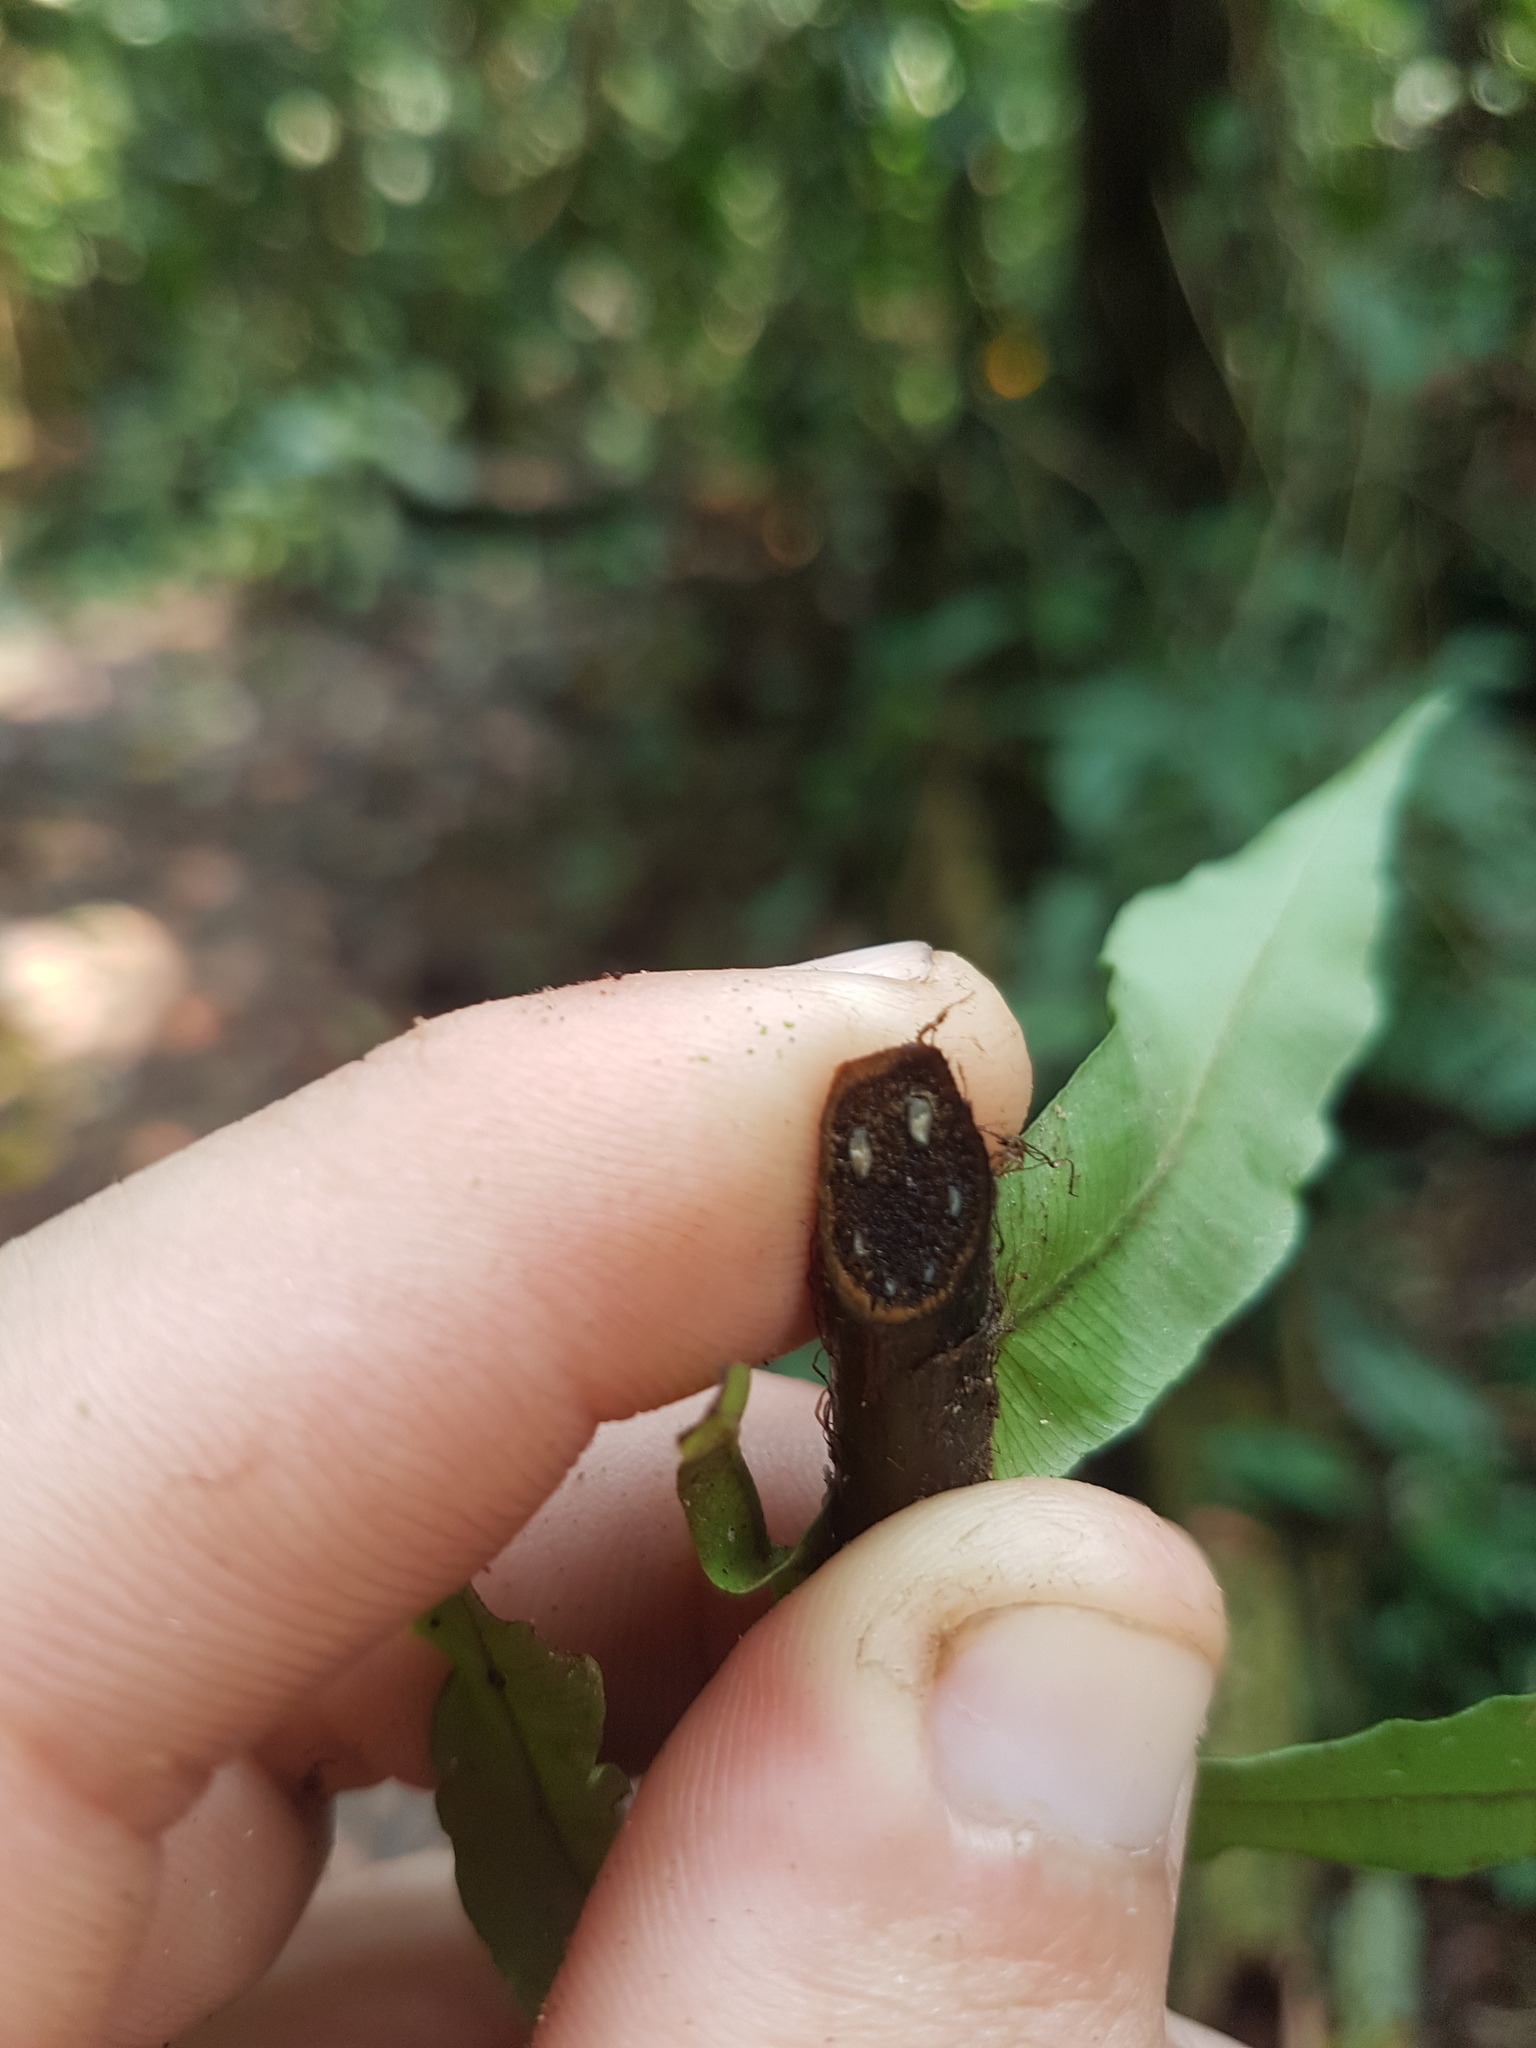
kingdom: Plantae
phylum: Tracheophyta
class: Polypodiopsida
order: Polypodiales
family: Lomariopsidaceae
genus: Cyclopeltis
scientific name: Cyclopeltis semicordata
